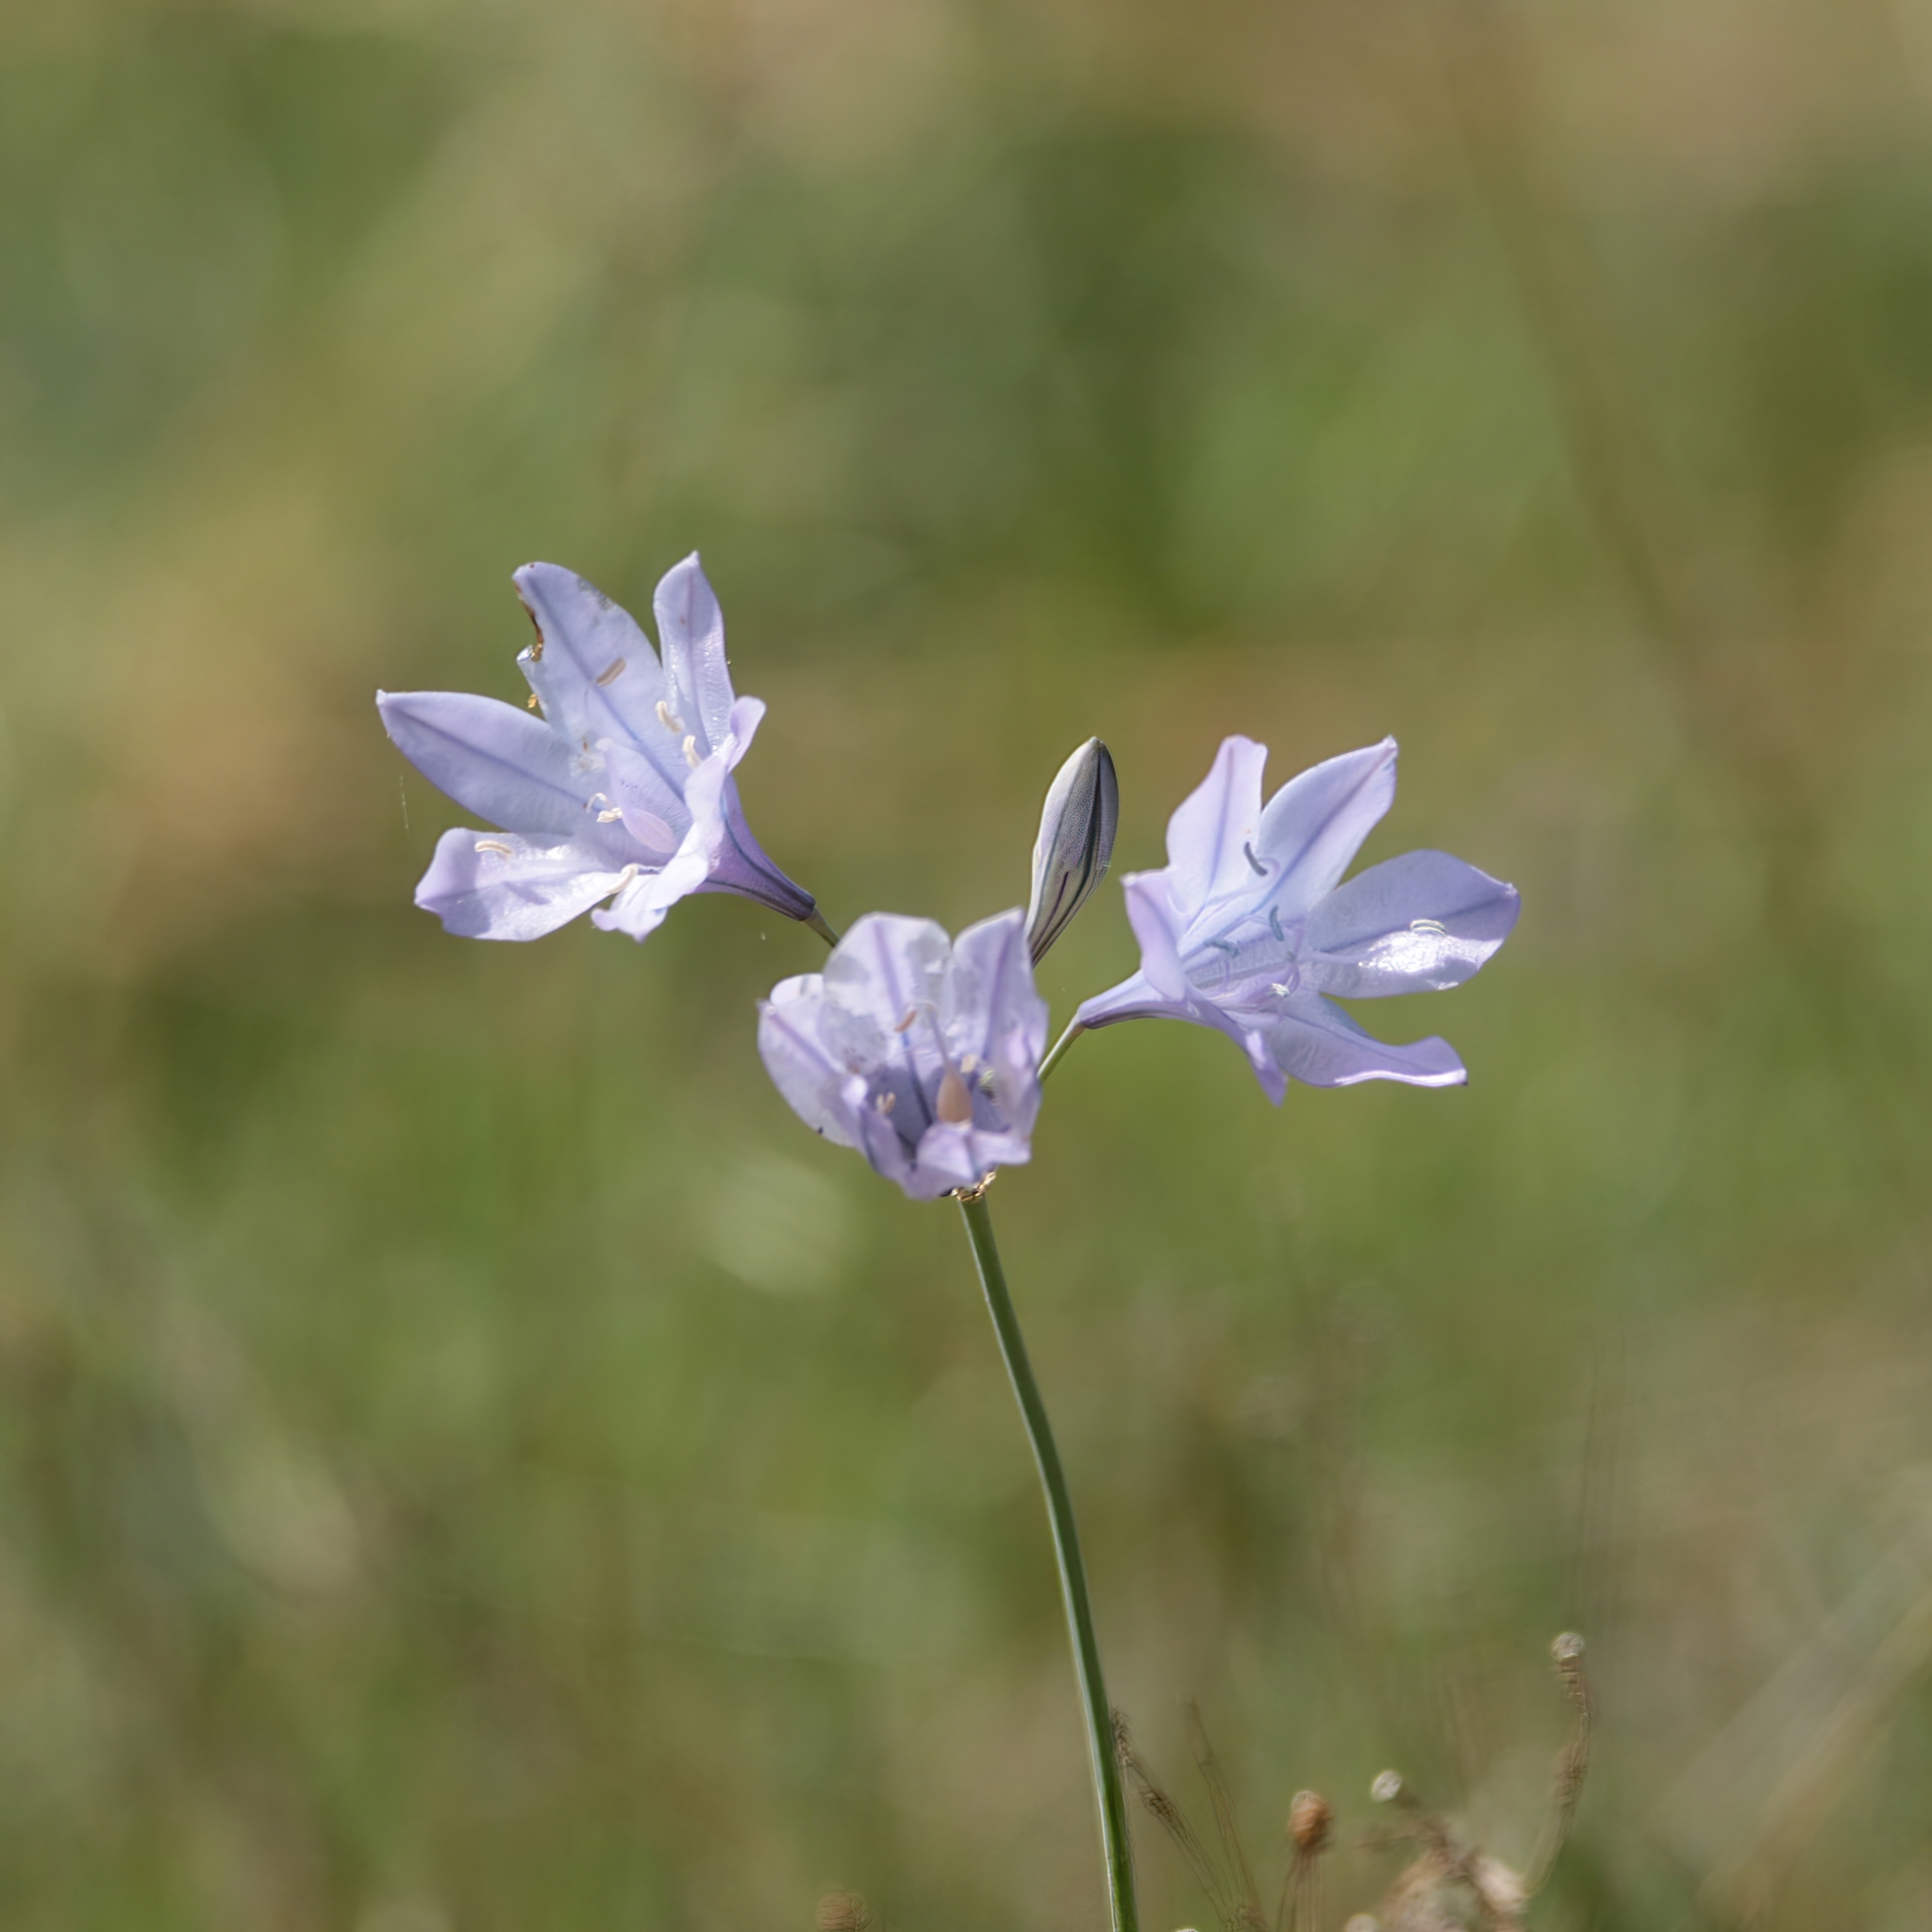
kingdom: Plantae
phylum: Tracheophyta
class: Liliopsida
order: Asparagales
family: Asparagaceae
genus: Triteleia
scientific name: Triteleia laxa
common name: Triplet-lily
